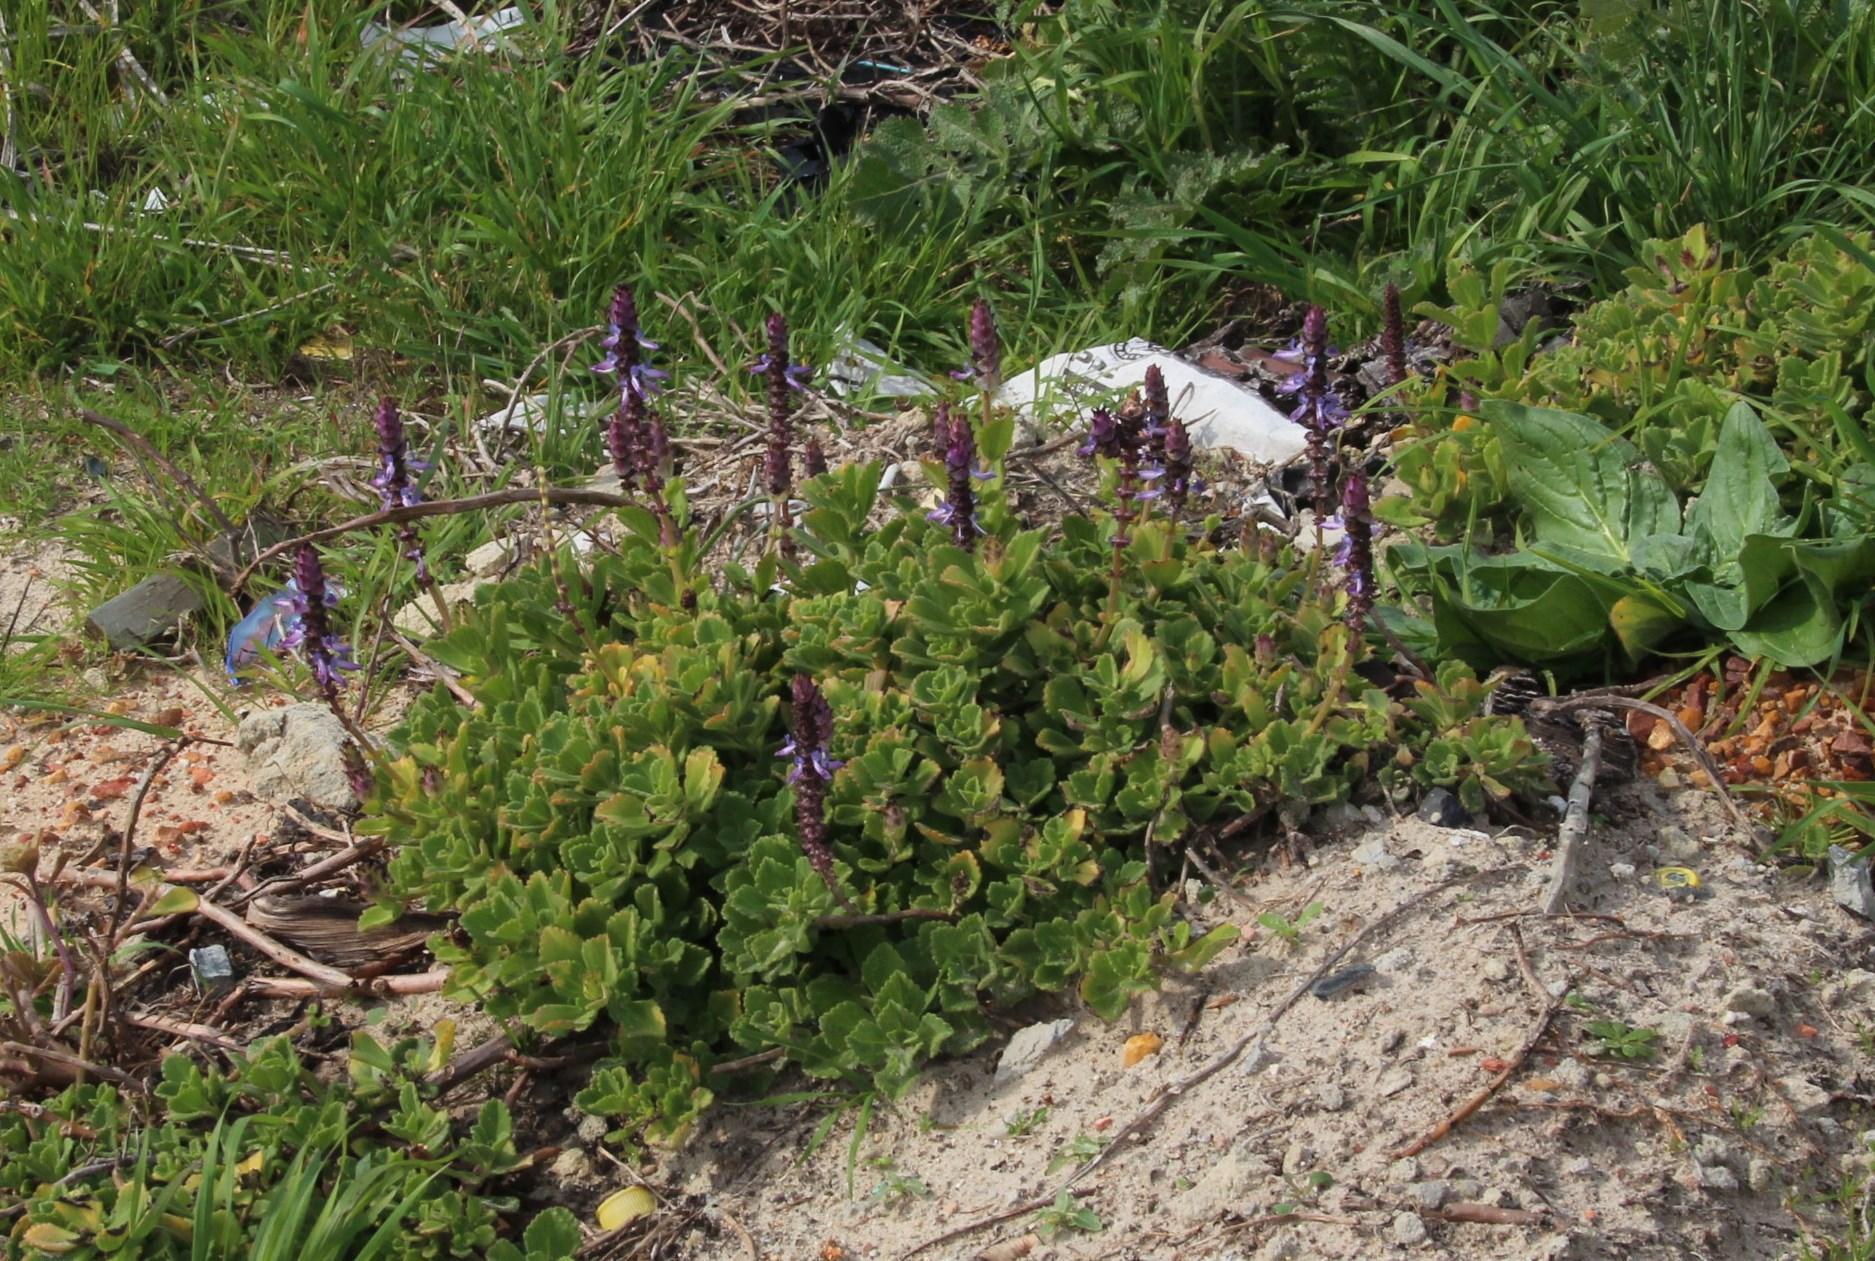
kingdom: Plantae
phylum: Tracheophyta
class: Magnoliopsida
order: Lamiales
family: Lamiaceae
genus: Coleus
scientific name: Coleus neochilus
